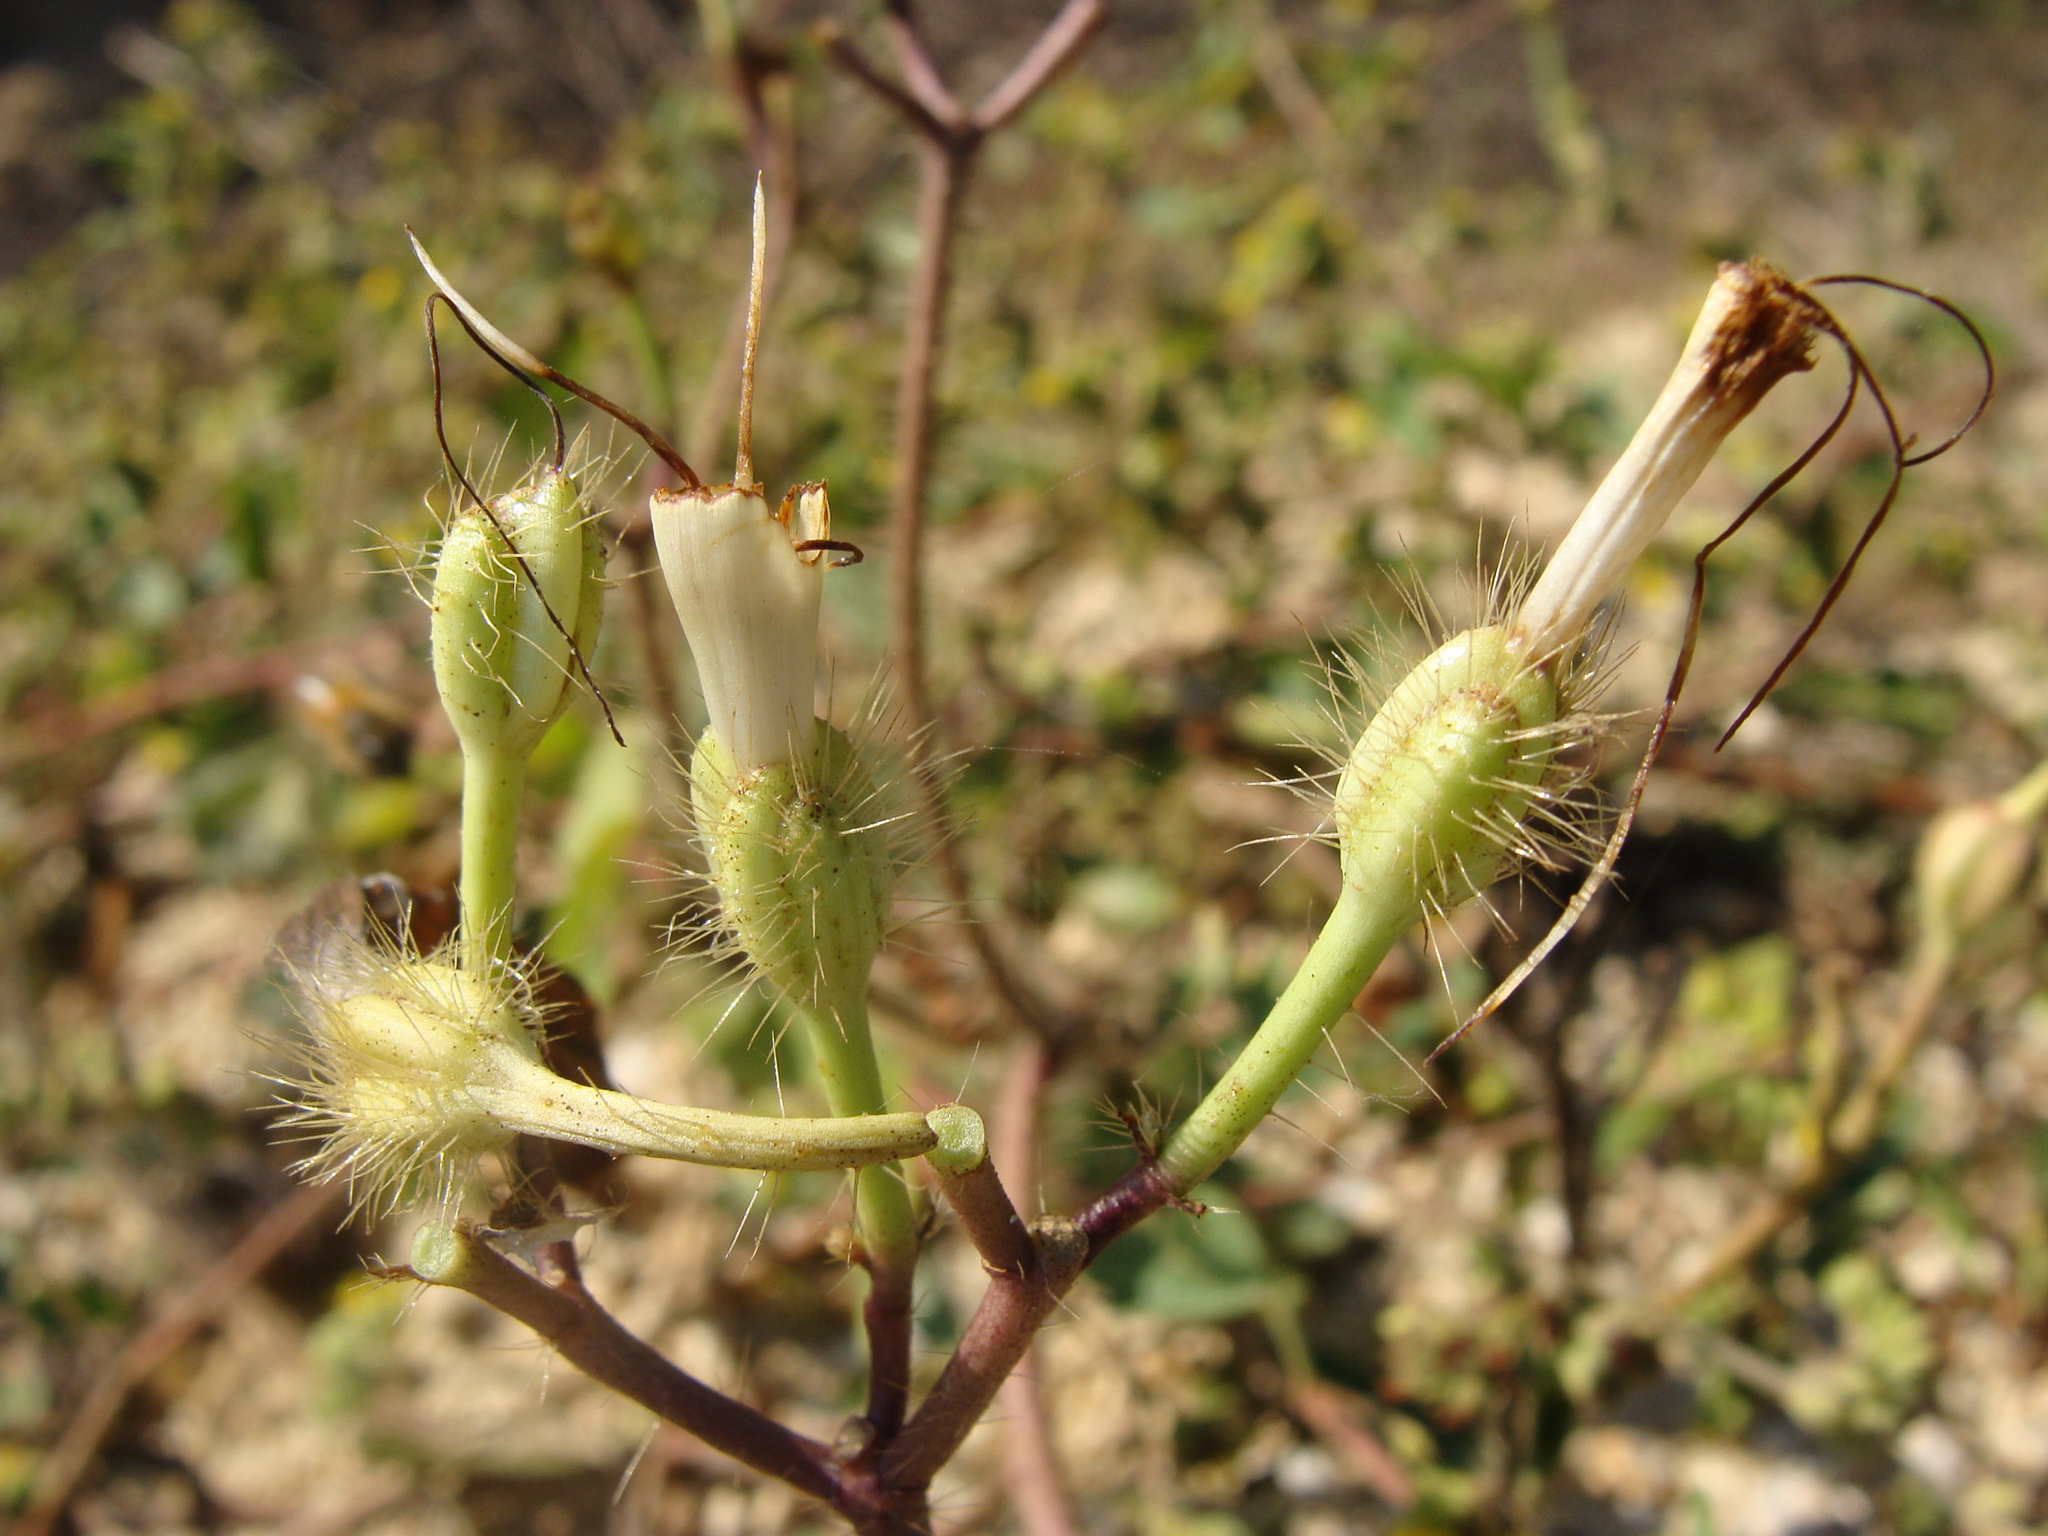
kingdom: Plantae
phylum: Tracheophyta
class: Magnoliopsida
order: Solanales
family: Convolvulaceae
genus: Ipomoea
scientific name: Ipomoea suaveolens
